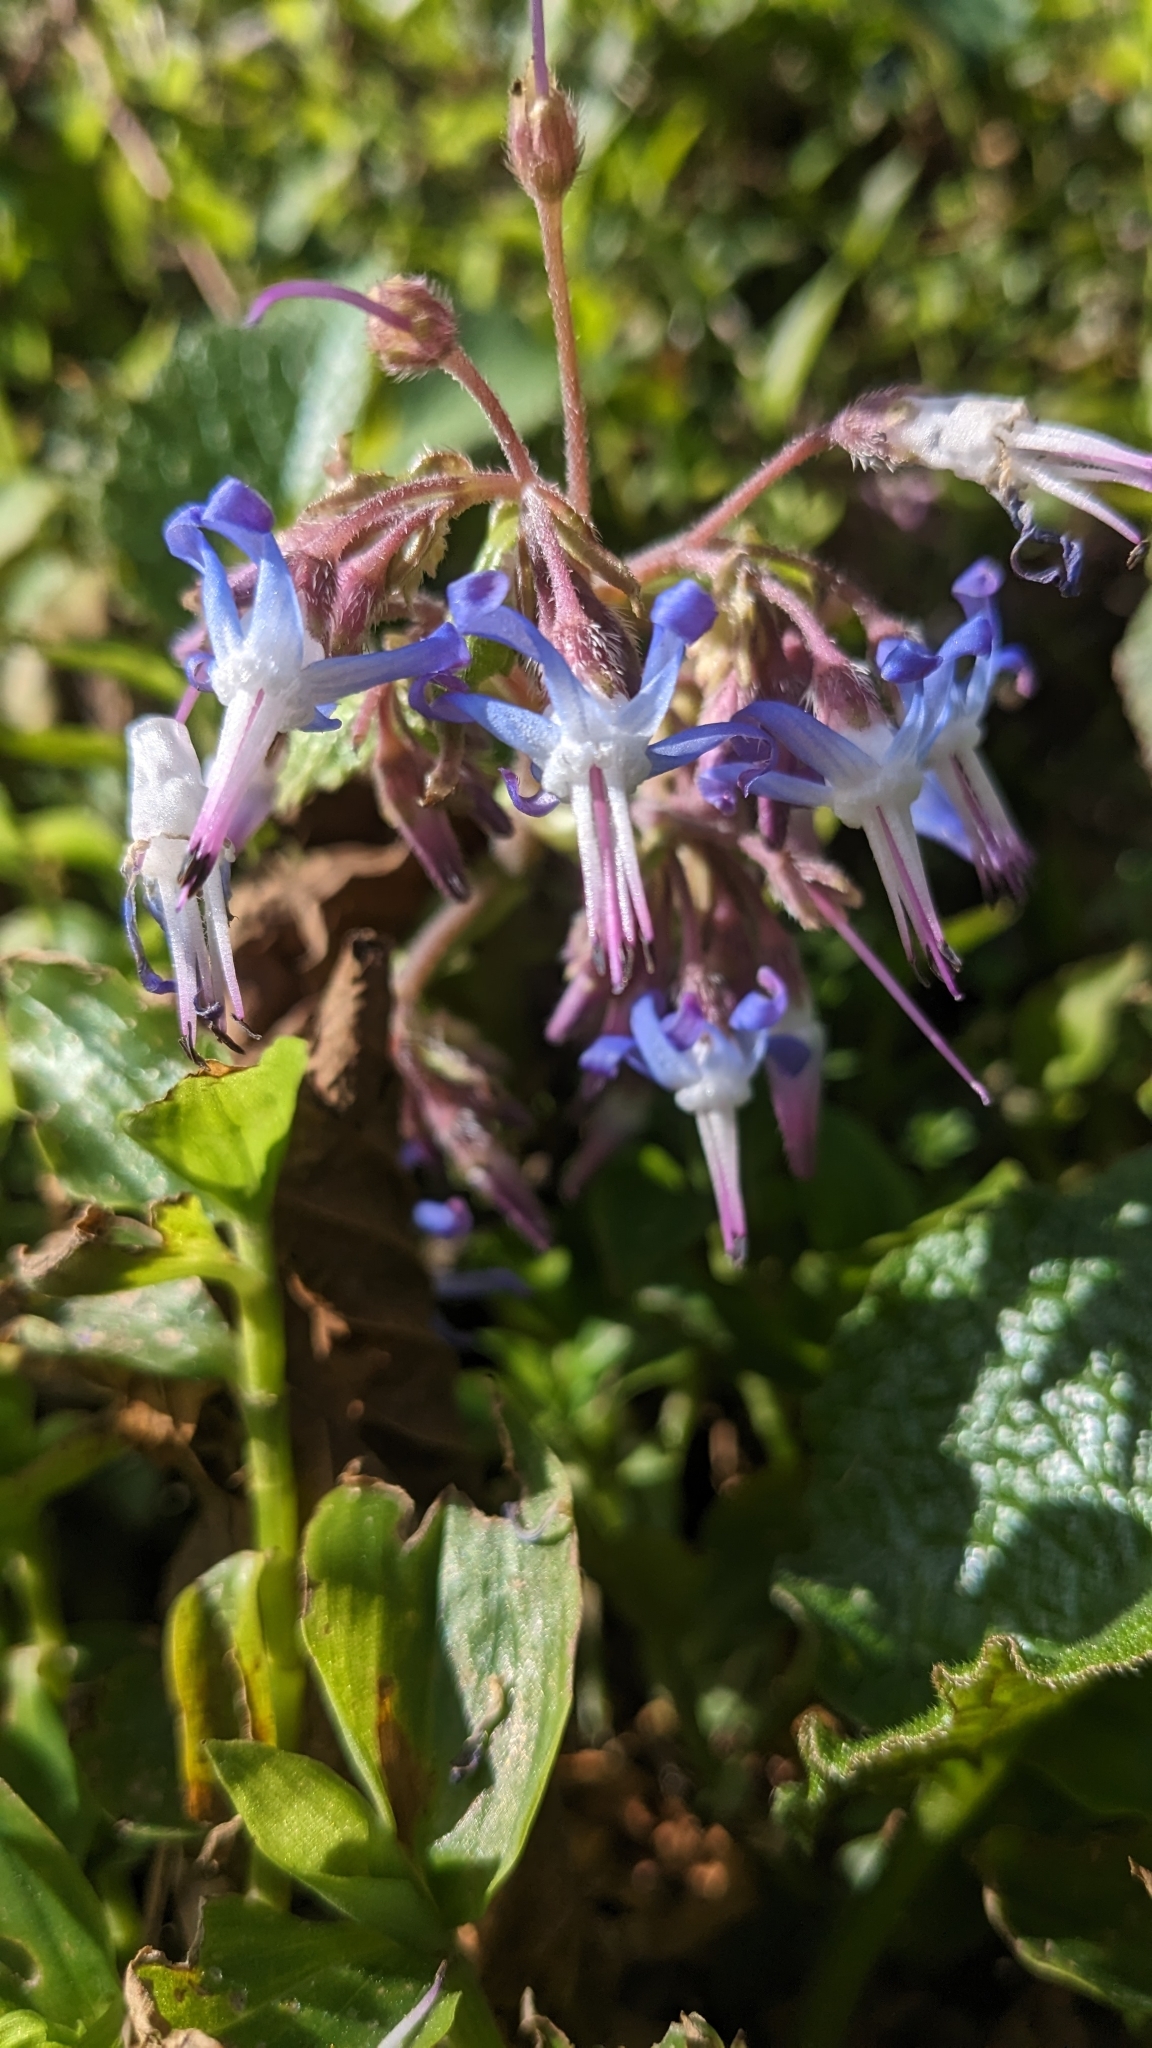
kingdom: Plantae
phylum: Tracheophyta
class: Magnoliopsida
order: Boraginales
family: Boraginaceae
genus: Trachystemon
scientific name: Trachystemon orientale
